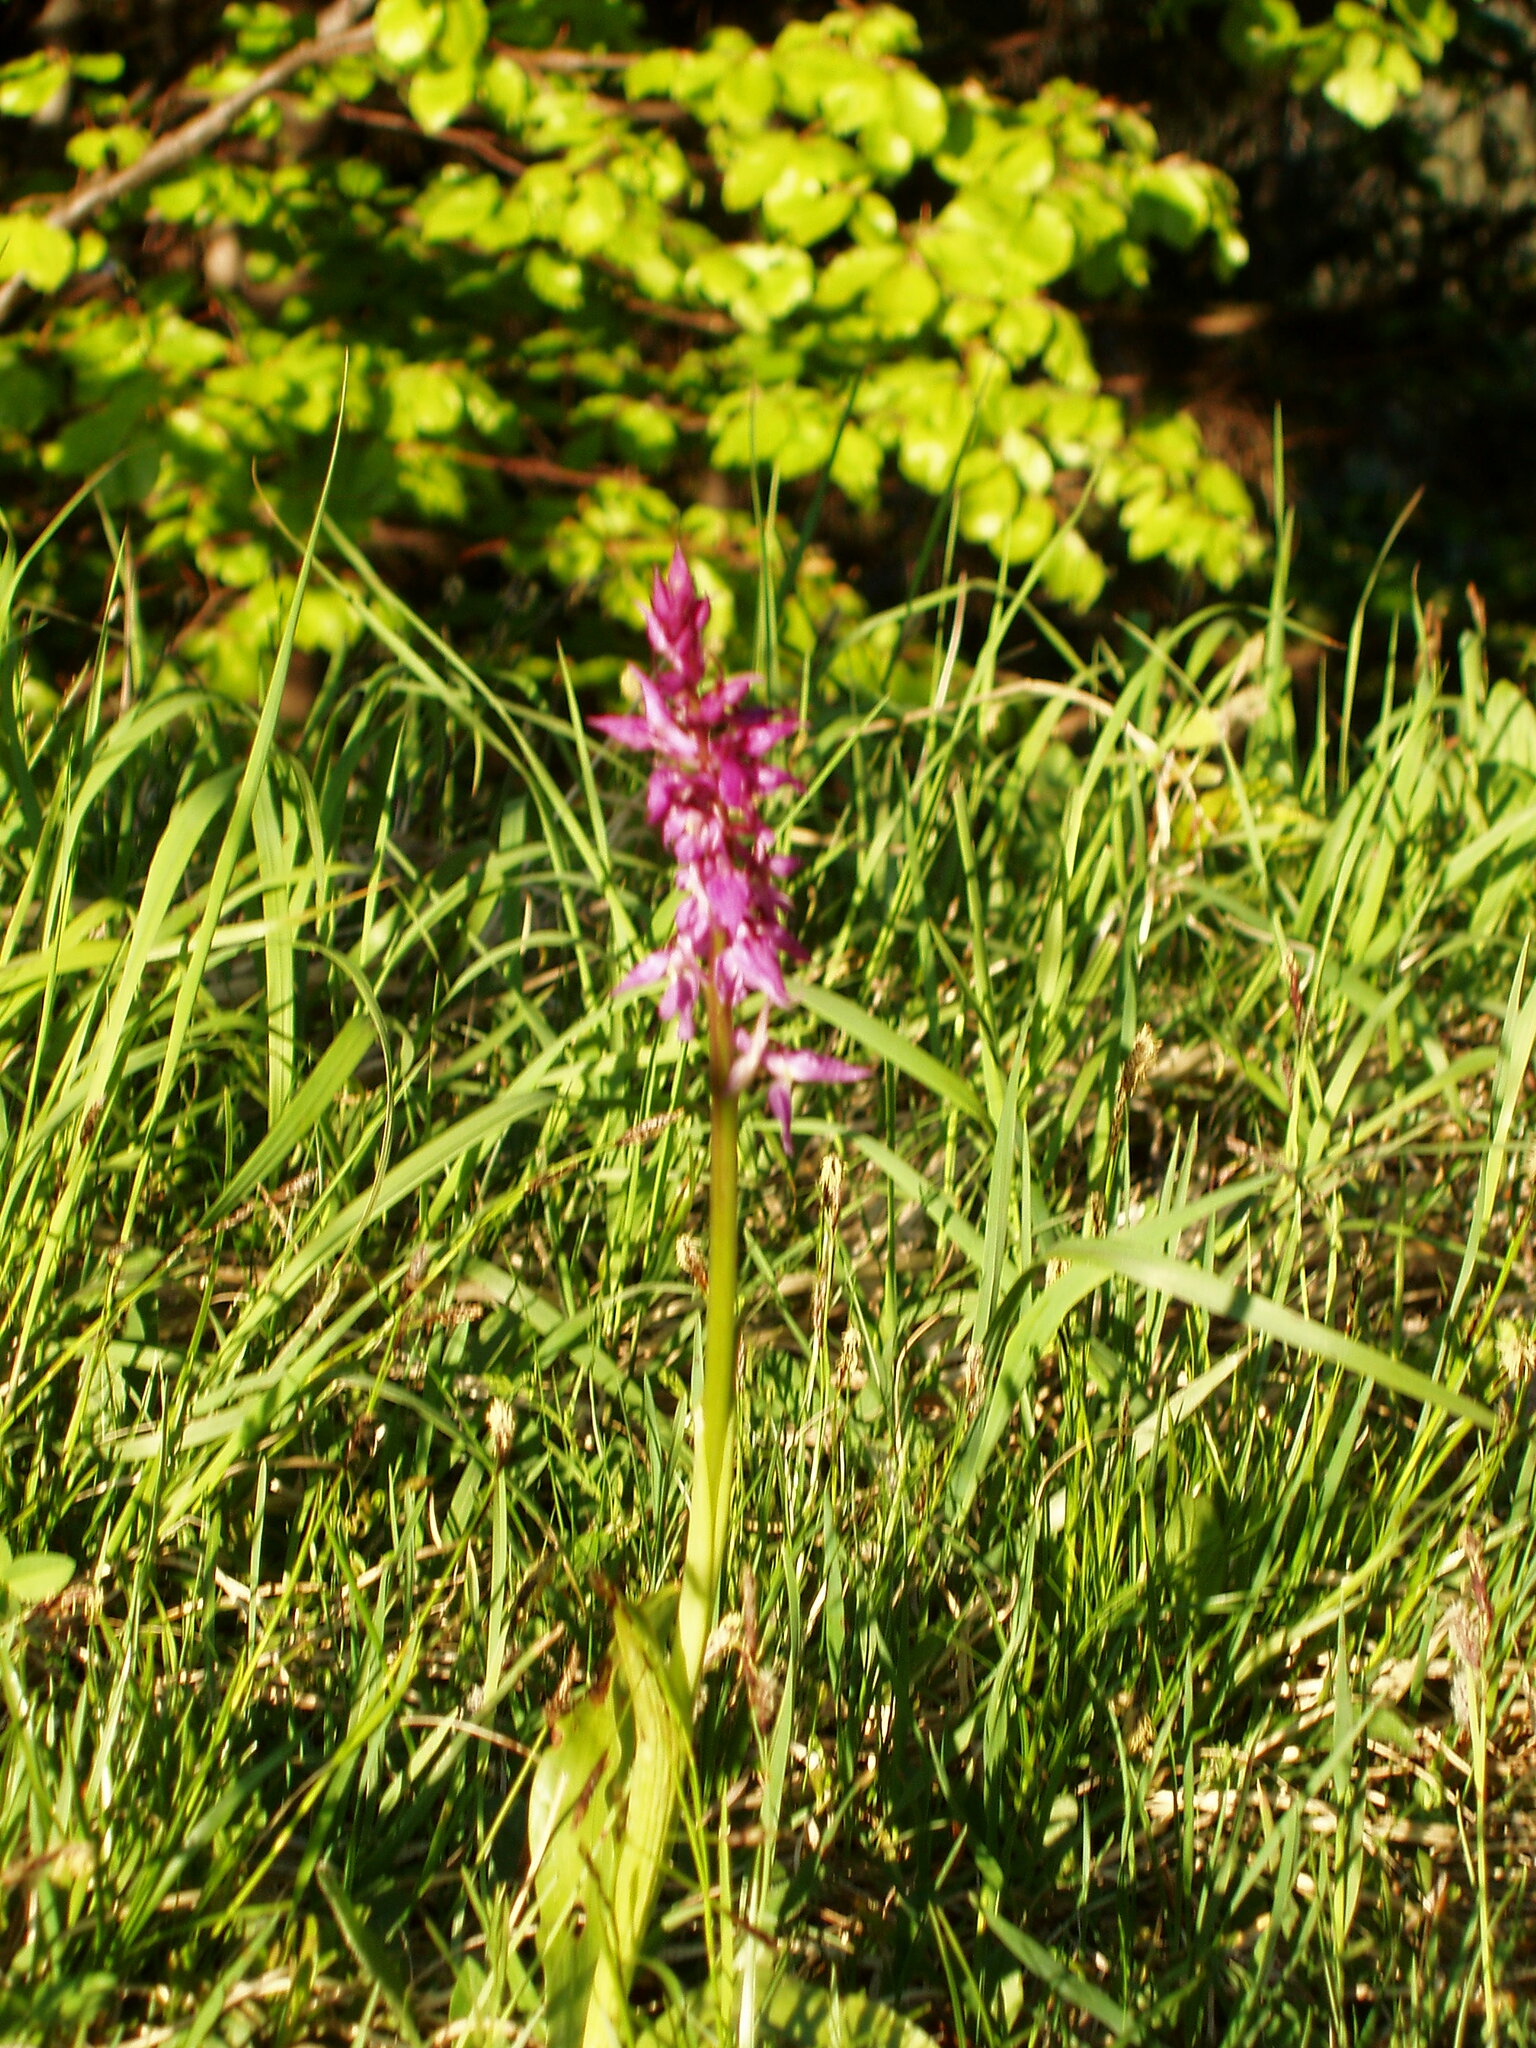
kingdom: Plantae
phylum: Tracheophyta
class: Liliopsida
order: Asparagales
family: Orchidaceae
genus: Orchis
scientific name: Orchis mascula
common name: Early-purple orchid
